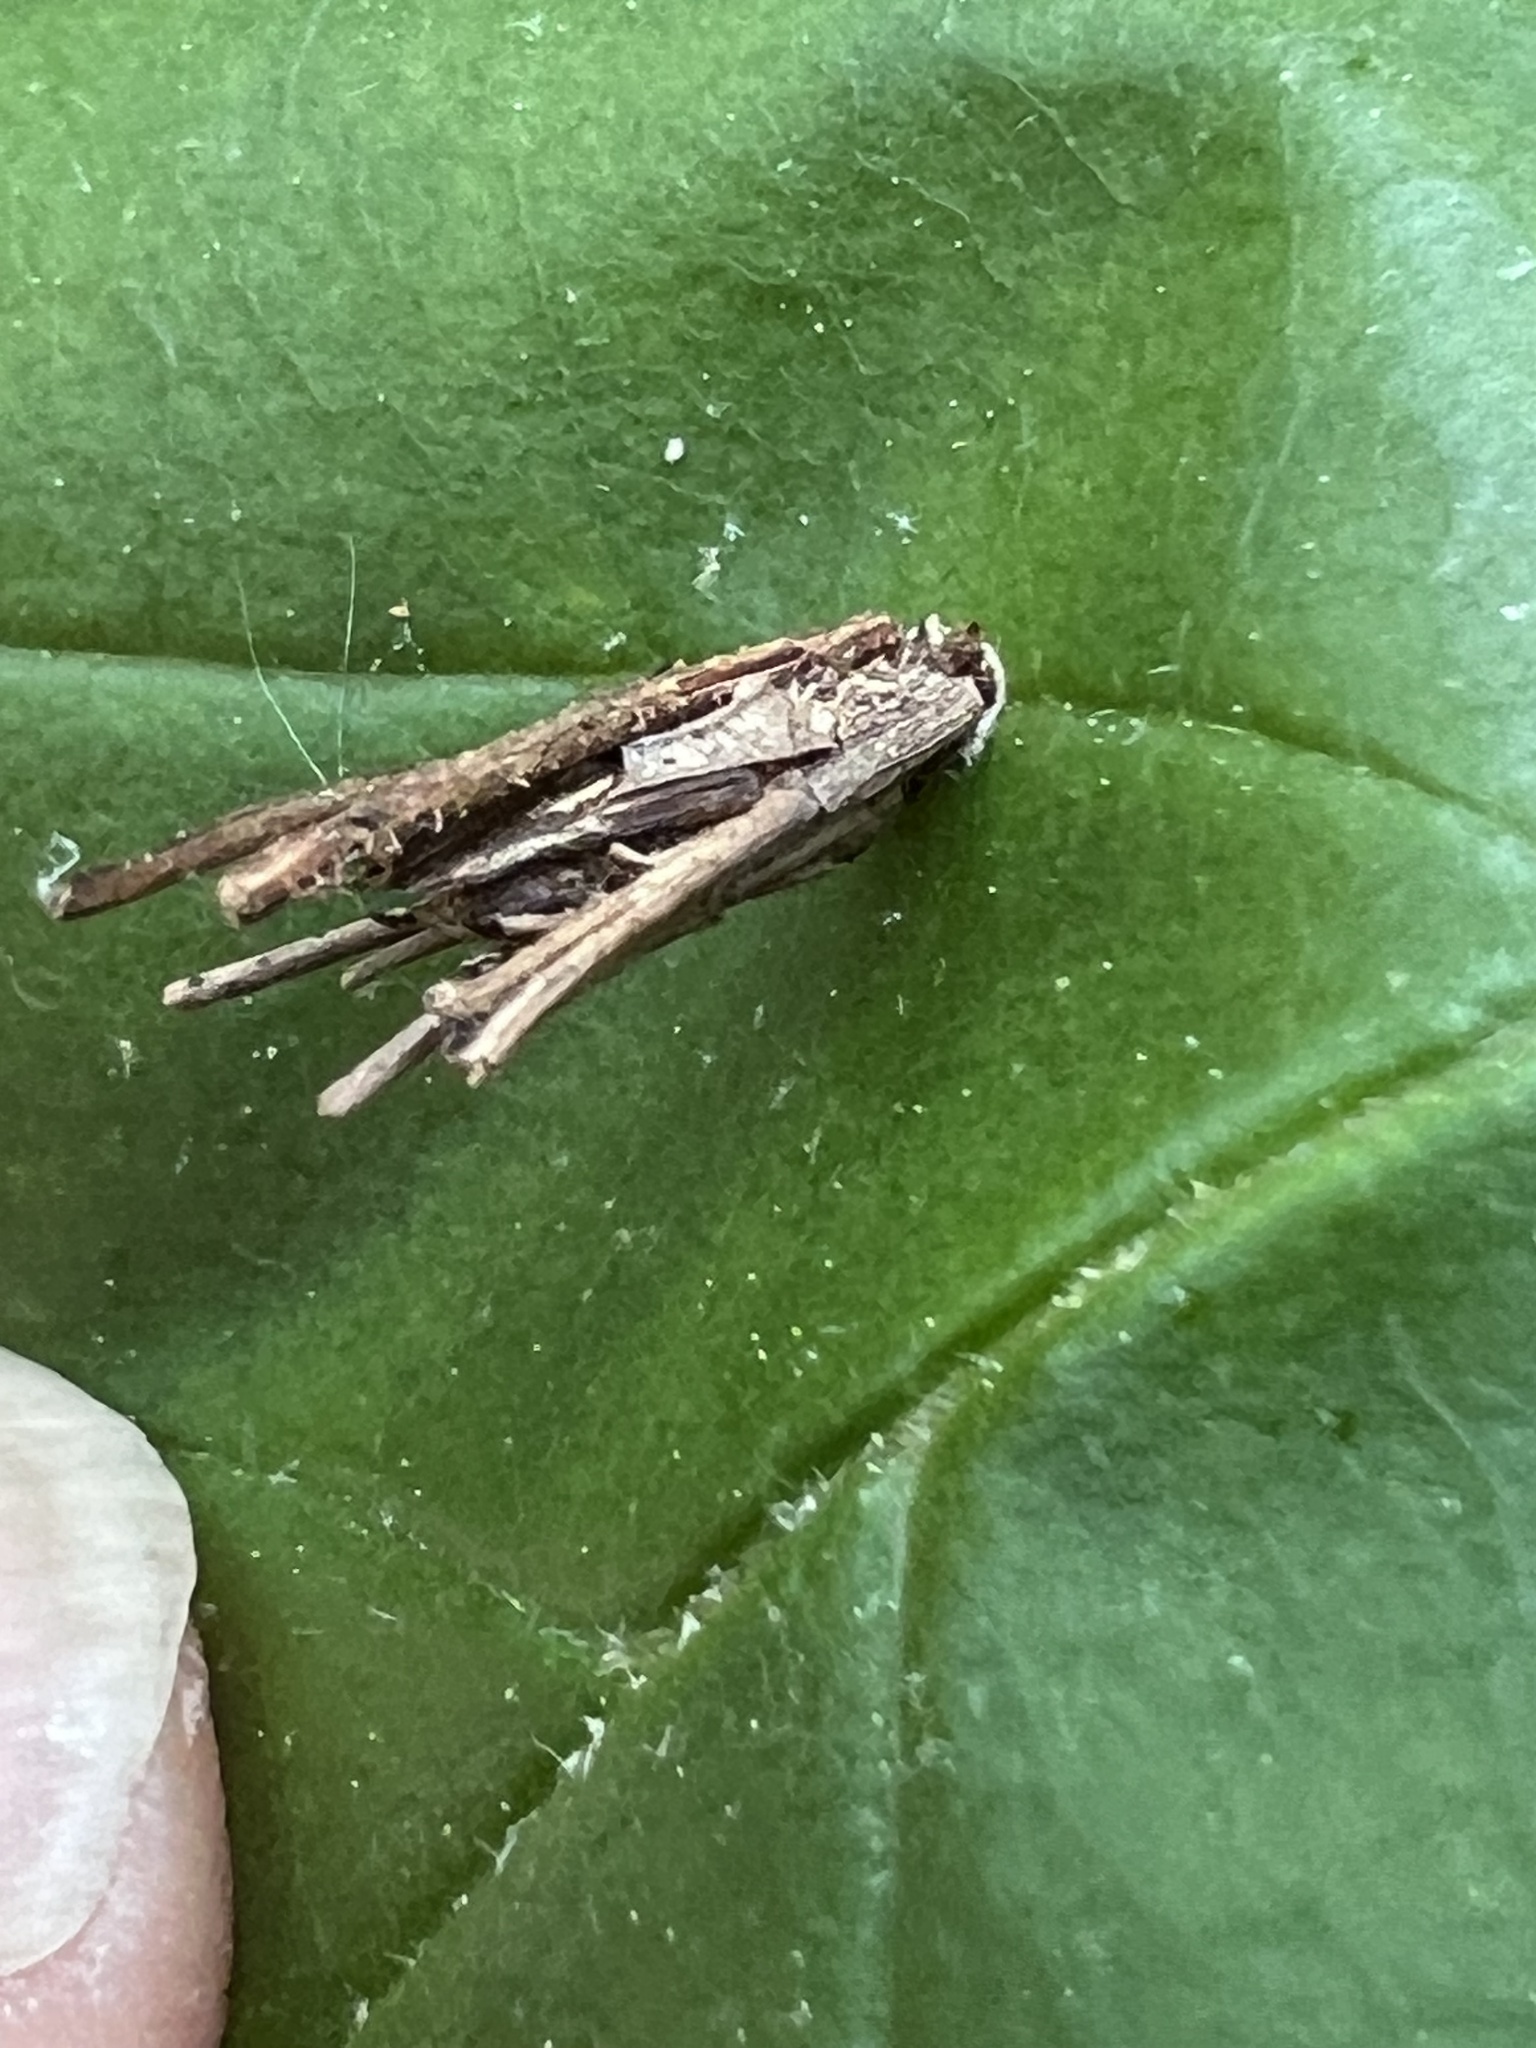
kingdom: Animalia
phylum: Arthropoda
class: Insecta
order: Lepidoptera
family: Psychidae
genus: Psyche
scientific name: Psyche casta
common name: Common sweep
